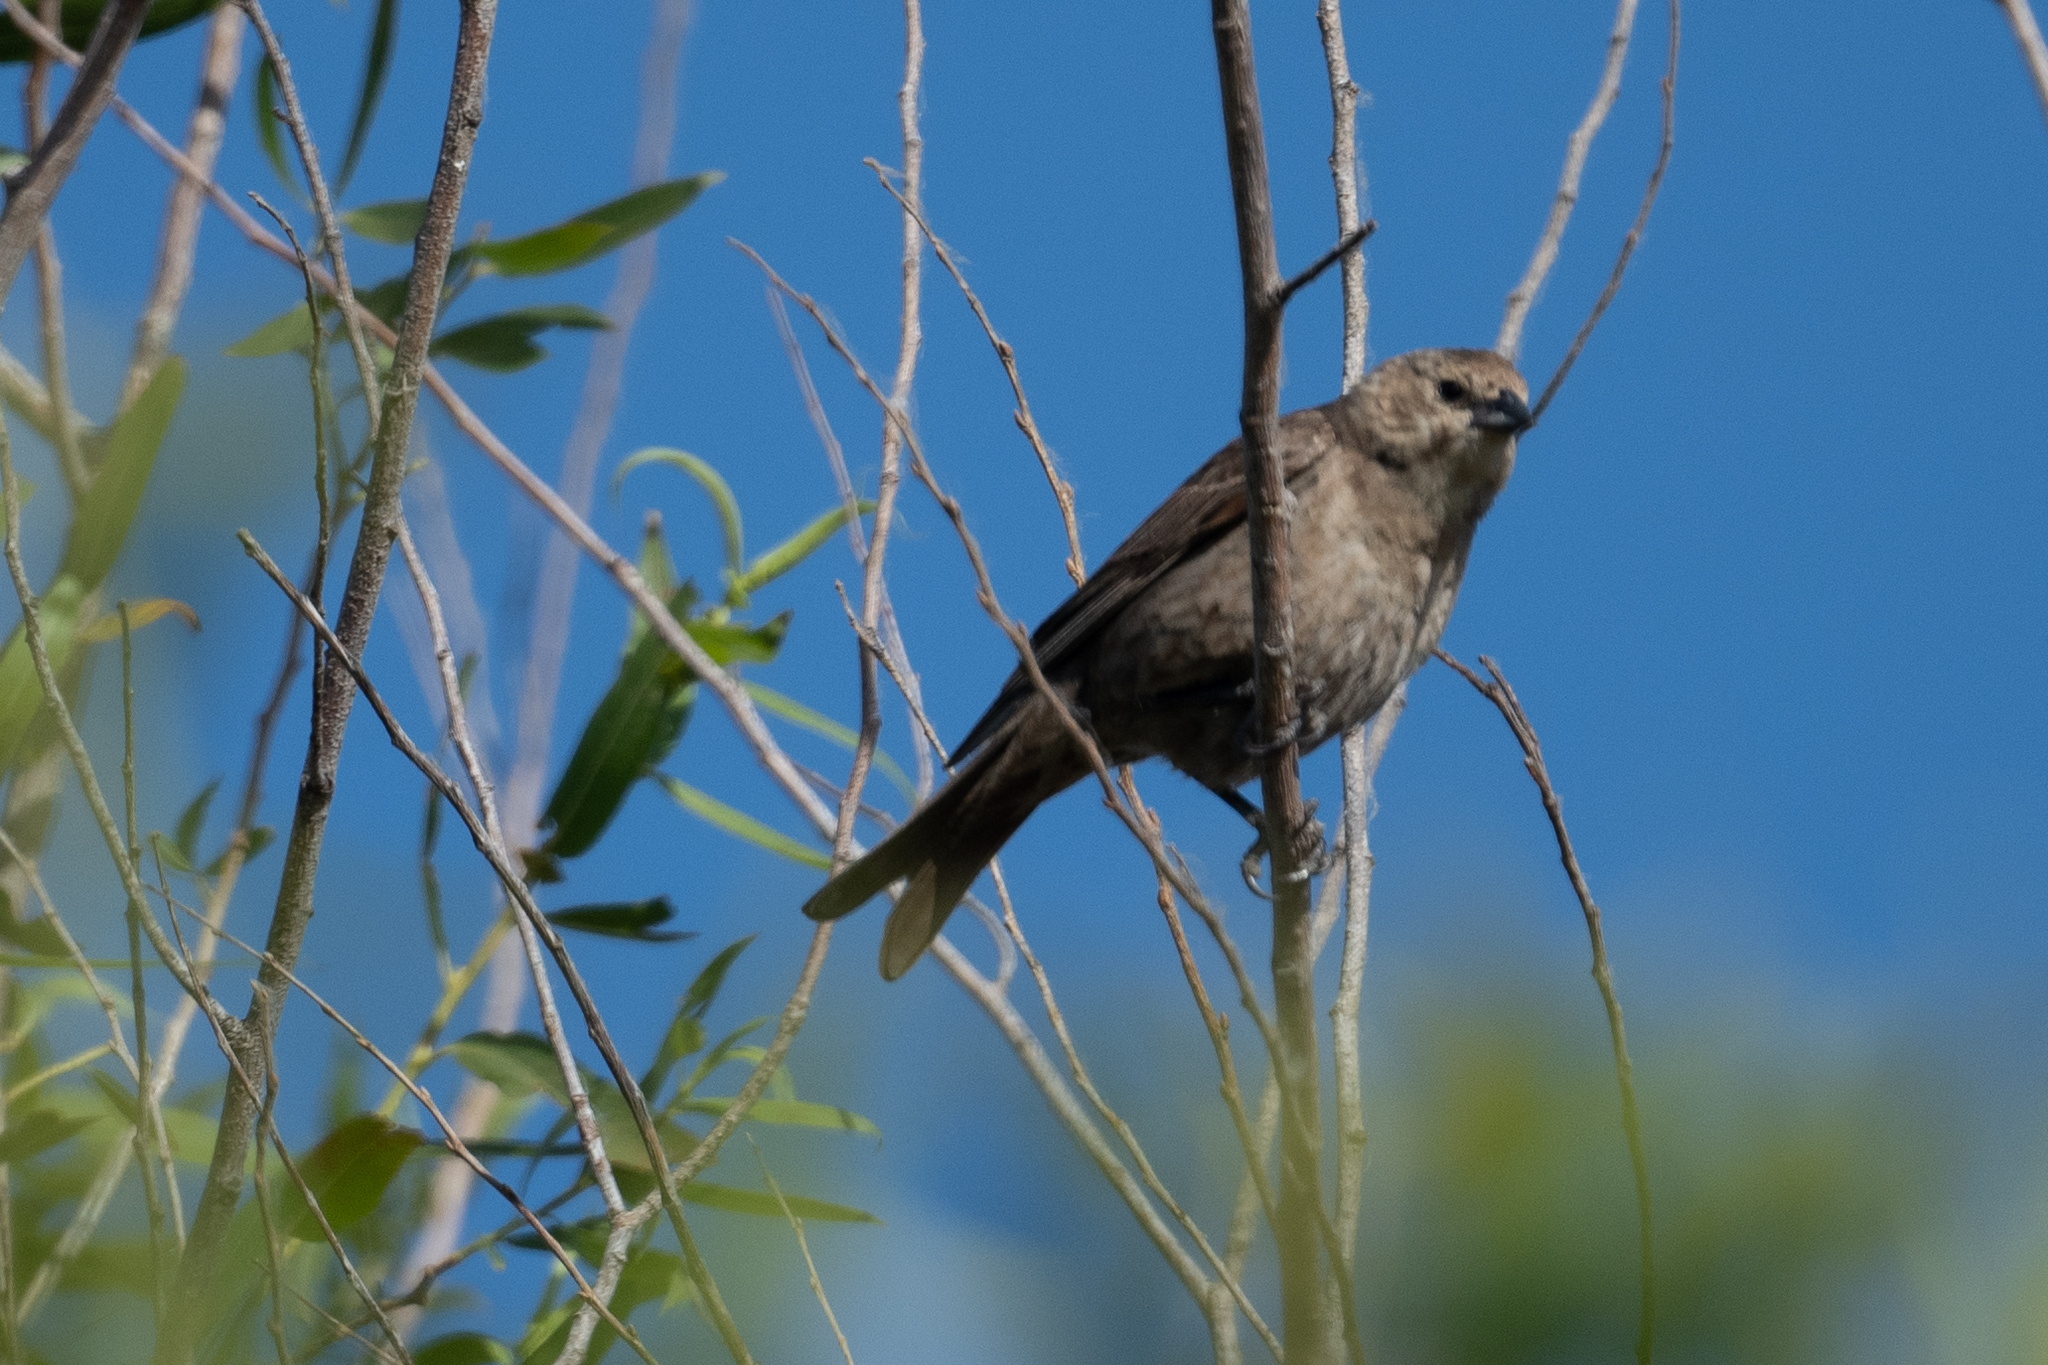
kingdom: Animalia
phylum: Chordata
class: Aves
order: Passeriformes
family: Icteridae
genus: Molothrus
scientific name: Molothrus ater
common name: Brown-headed cowbird
